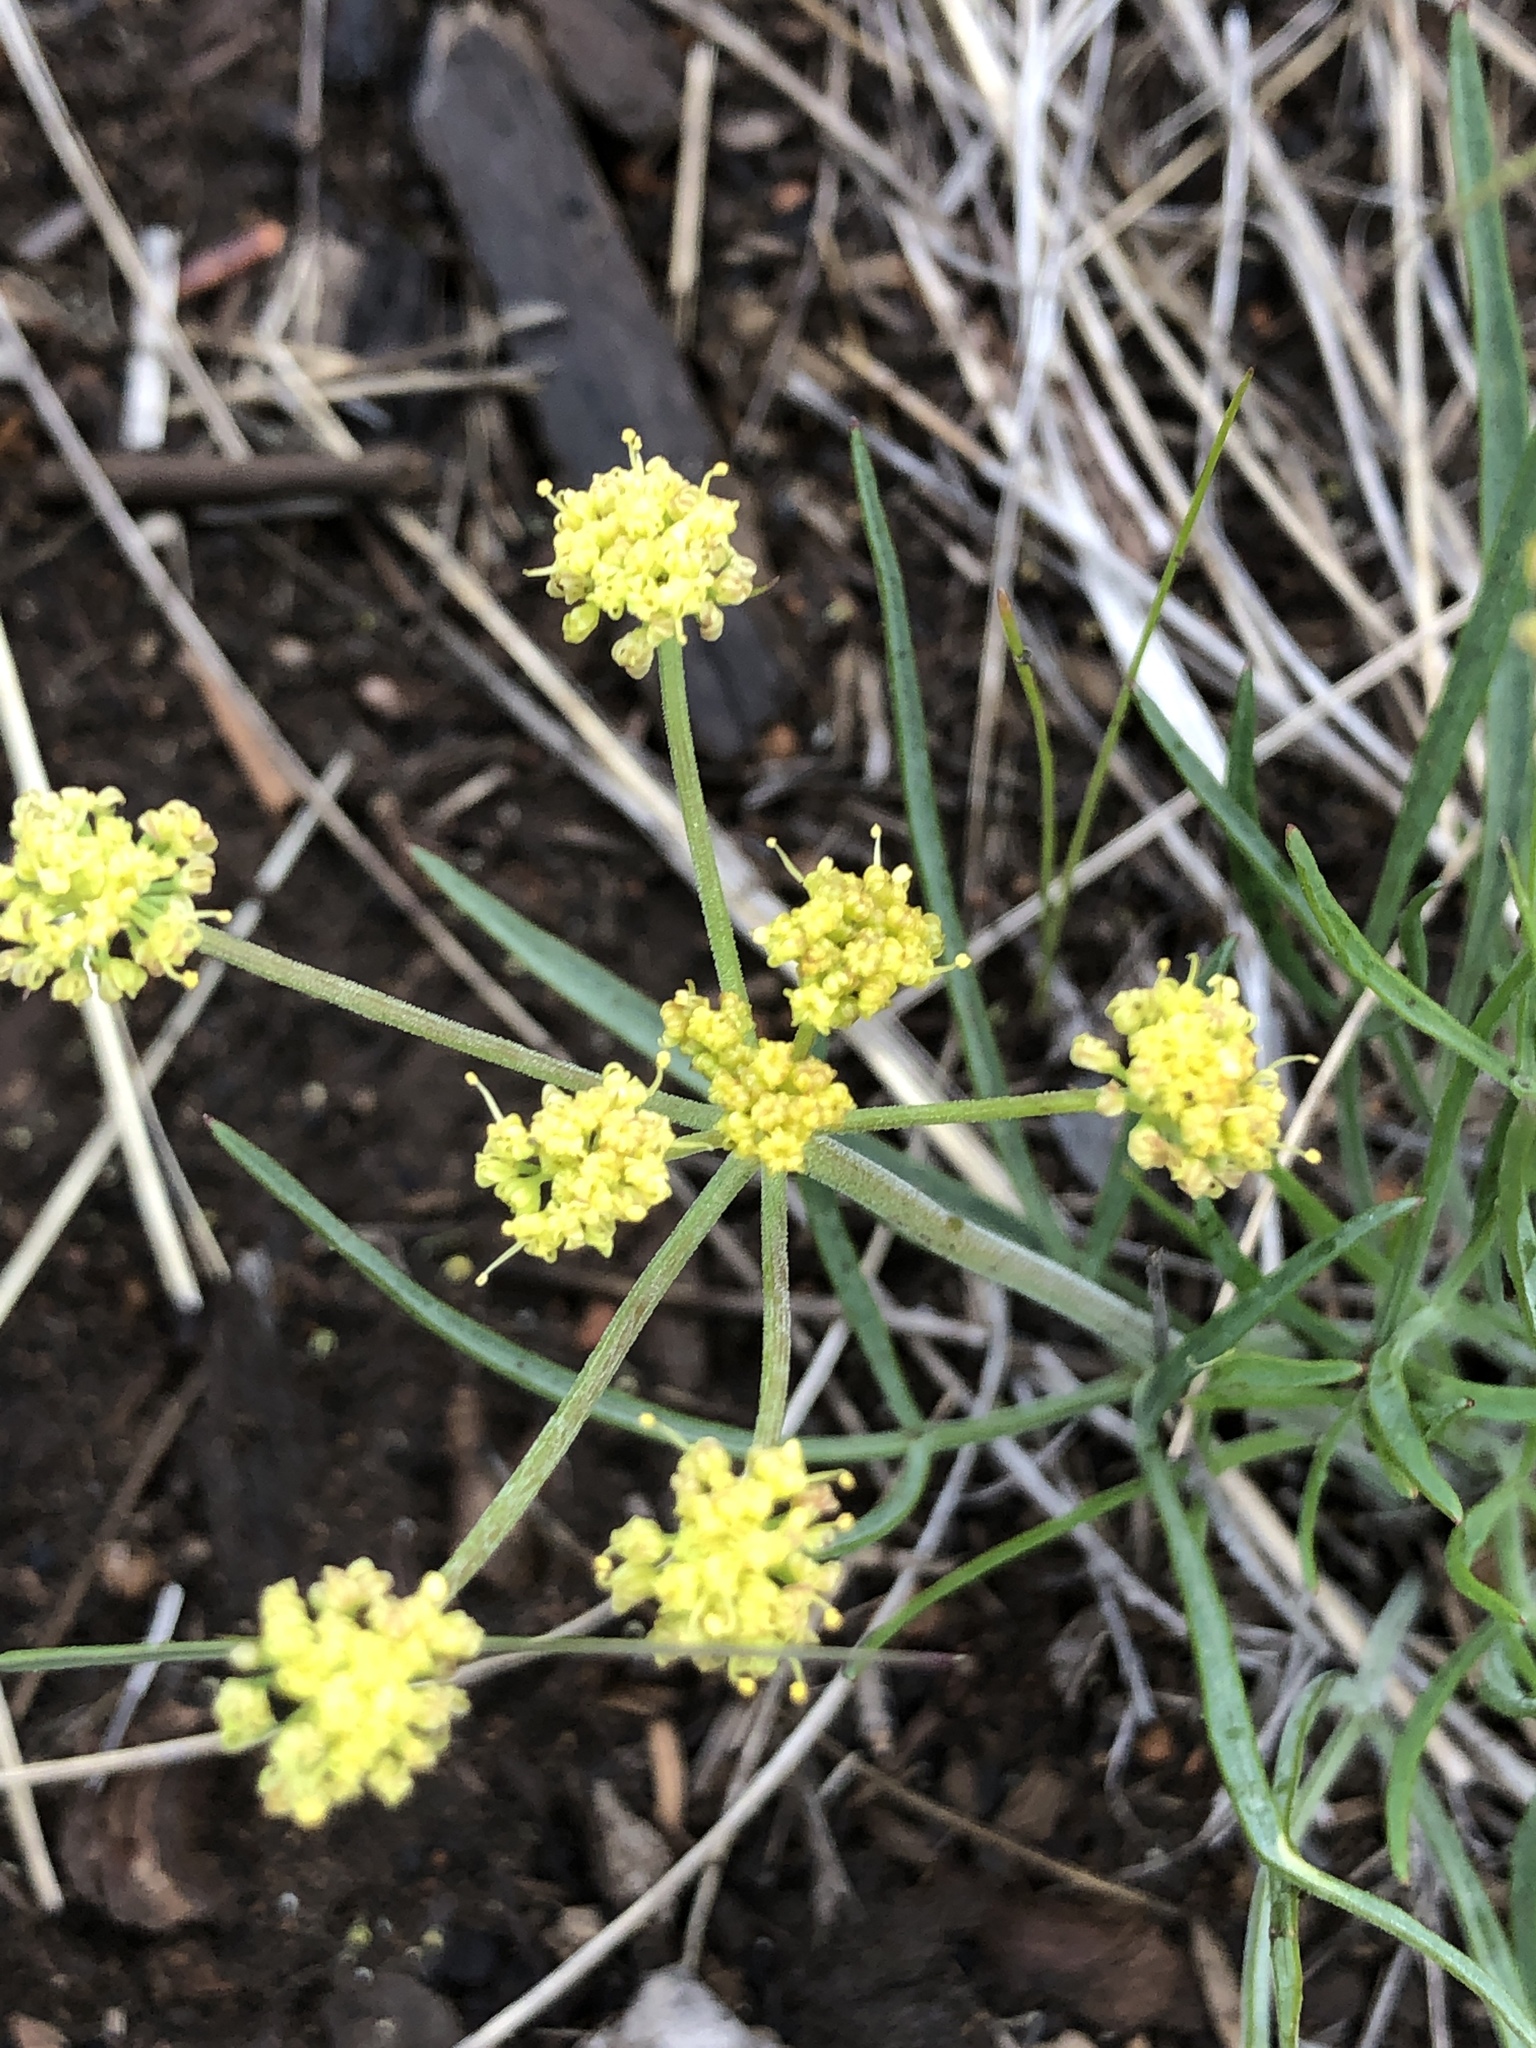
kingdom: Plantae
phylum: Tracheophyta
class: Magnoliopsida
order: Apiales
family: Apiaceae
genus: Lomatium
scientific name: Lomatium triternatum
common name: Ternate lomatium
